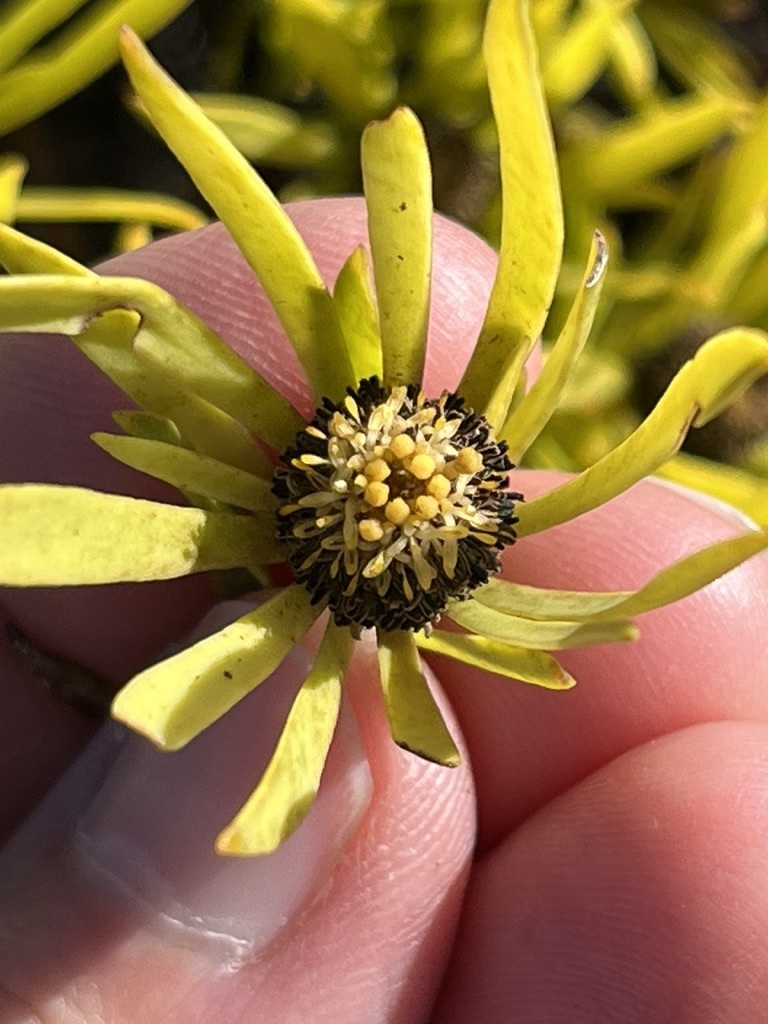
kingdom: Plantae
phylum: Tracheophyta
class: Magnoliopsida
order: Proteales
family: Proteaceae
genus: Leucadendron
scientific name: Leucadendron salignum
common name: Common sunshine conebush
